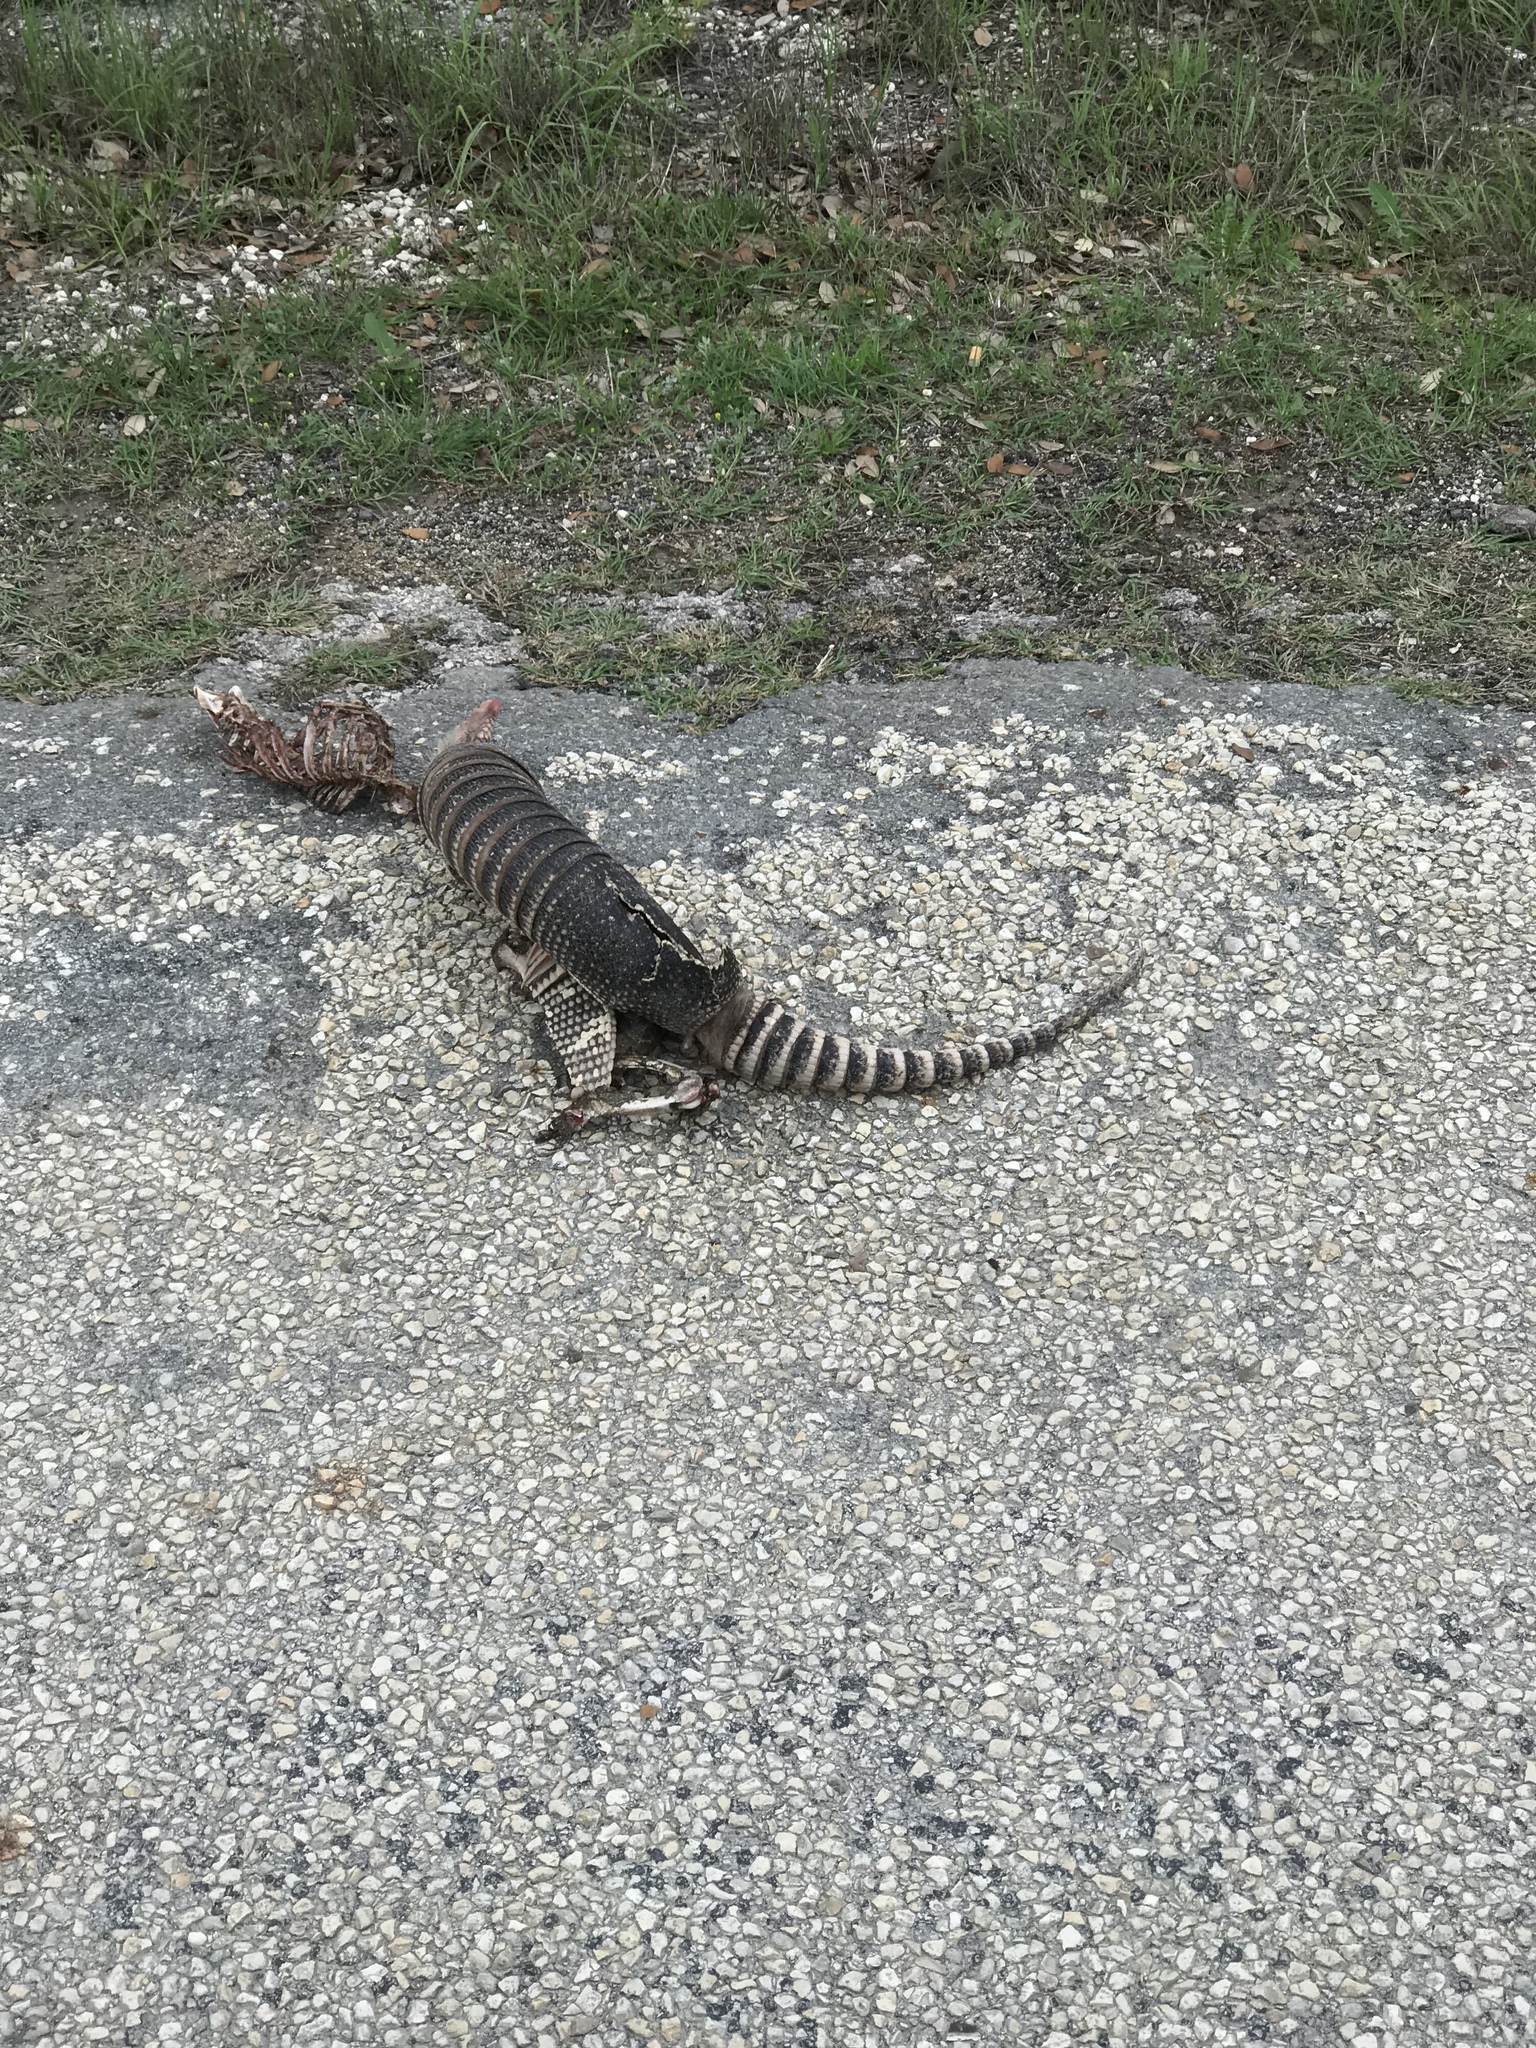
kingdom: Animalia
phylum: Chordata
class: Mammalia
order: Cingulata
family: Dasypodidae
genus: Dasypus
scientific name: Dasypus novemcinctus
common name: Nine-banded armadillo
